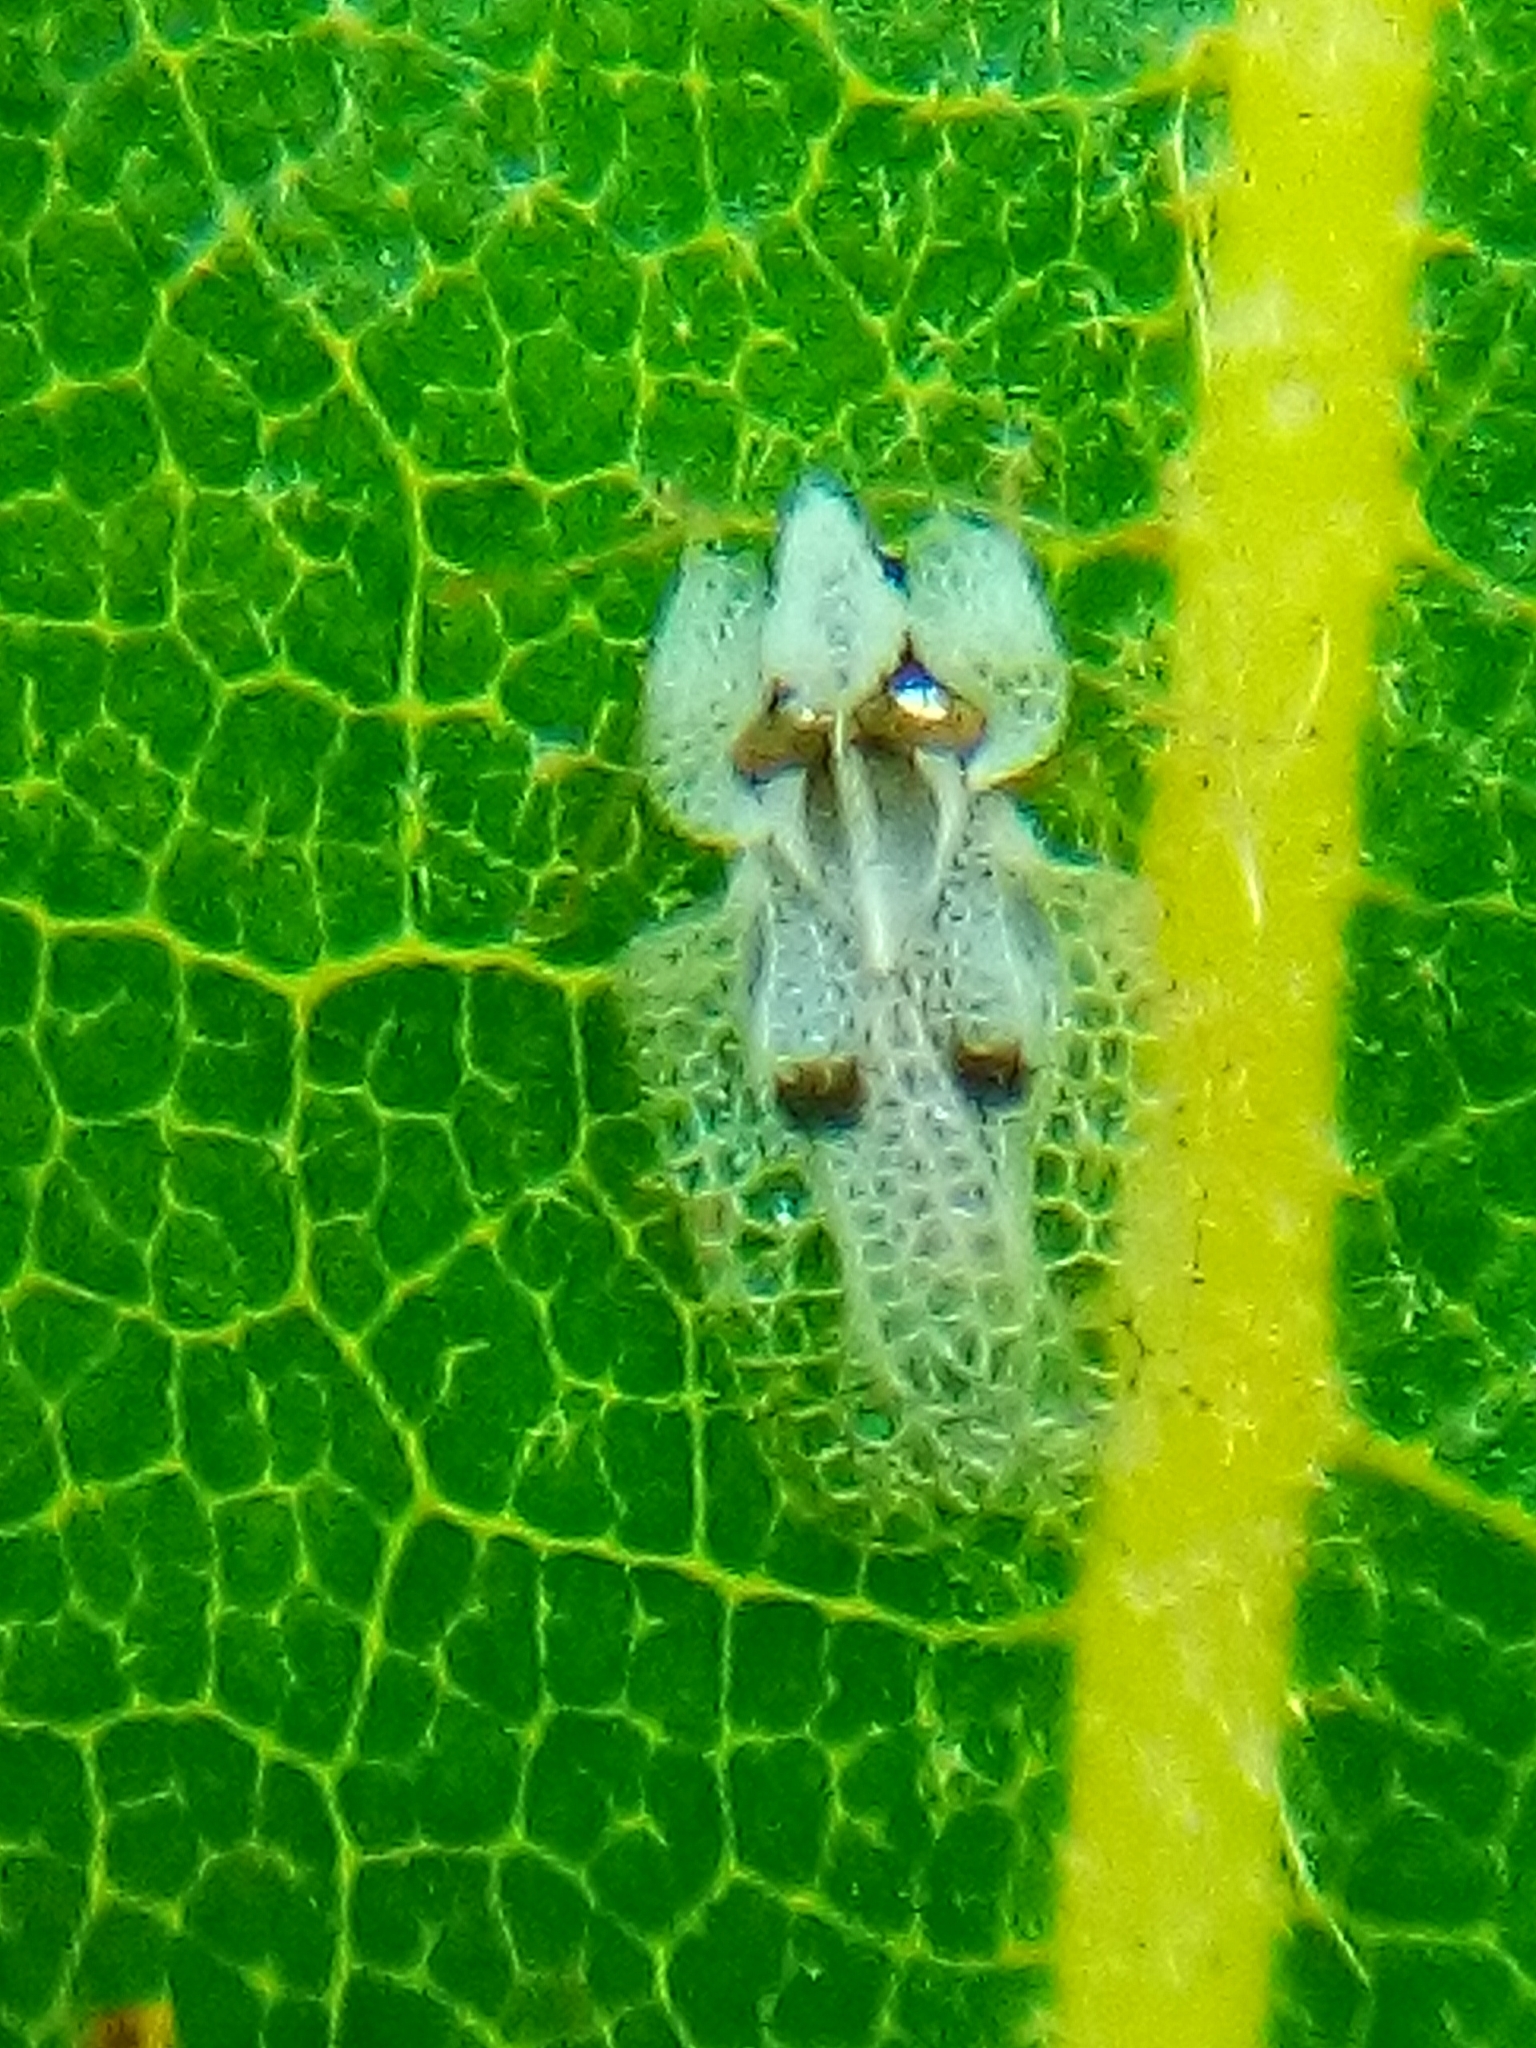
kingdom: Animalia
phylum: Arthropoda
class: Insecta
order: Hemiptera
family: Tingidae
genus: Corythucha
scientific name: Corythucha ciliata
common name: Sycamore lace bug
